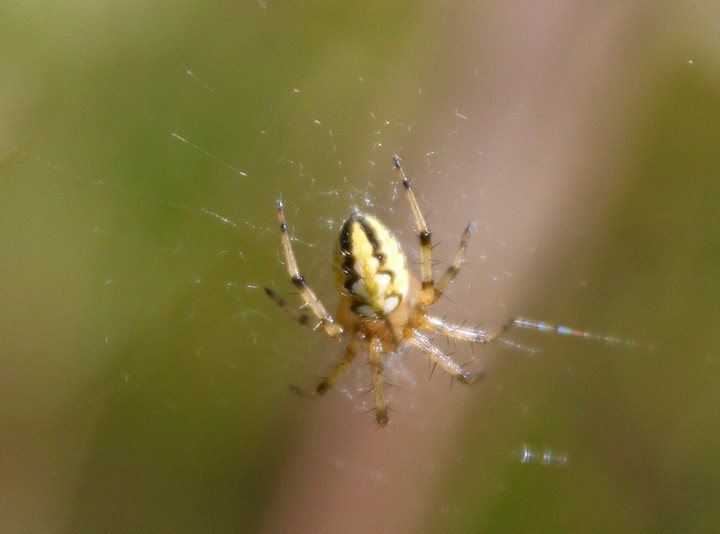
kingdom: Animalia
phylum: Arthropoda
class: Arachnida
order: Araneae
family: Araneidae
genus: Neoscona
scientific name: Neoscona adianta
